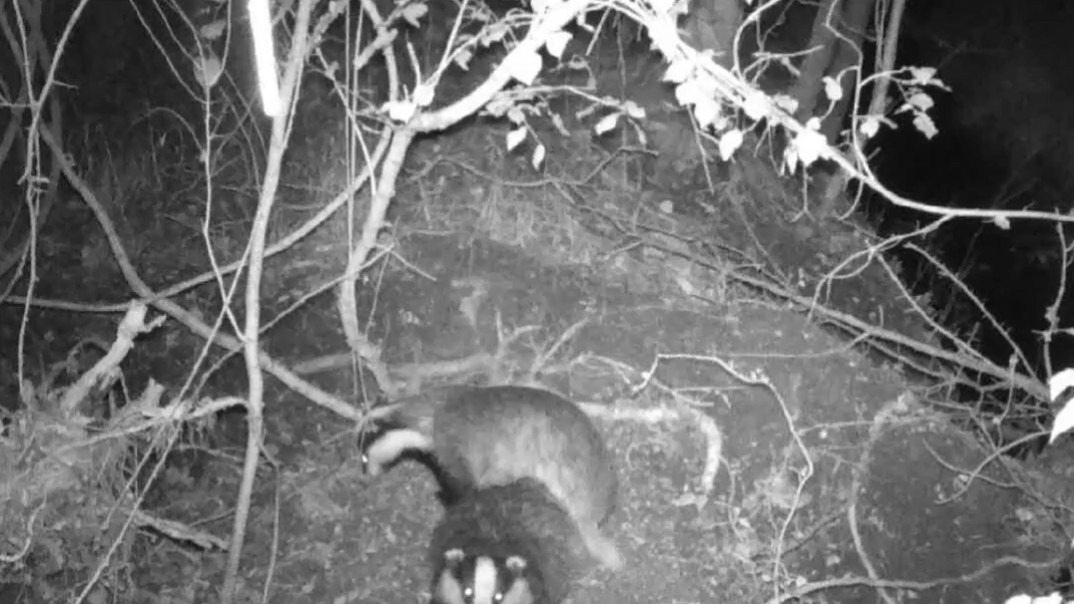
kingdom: Animalia
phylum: Chordata
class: Mammalia
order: Carnivora
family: Mustelidae
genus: Meles
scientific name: Meles meles
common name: Eurasian badger
